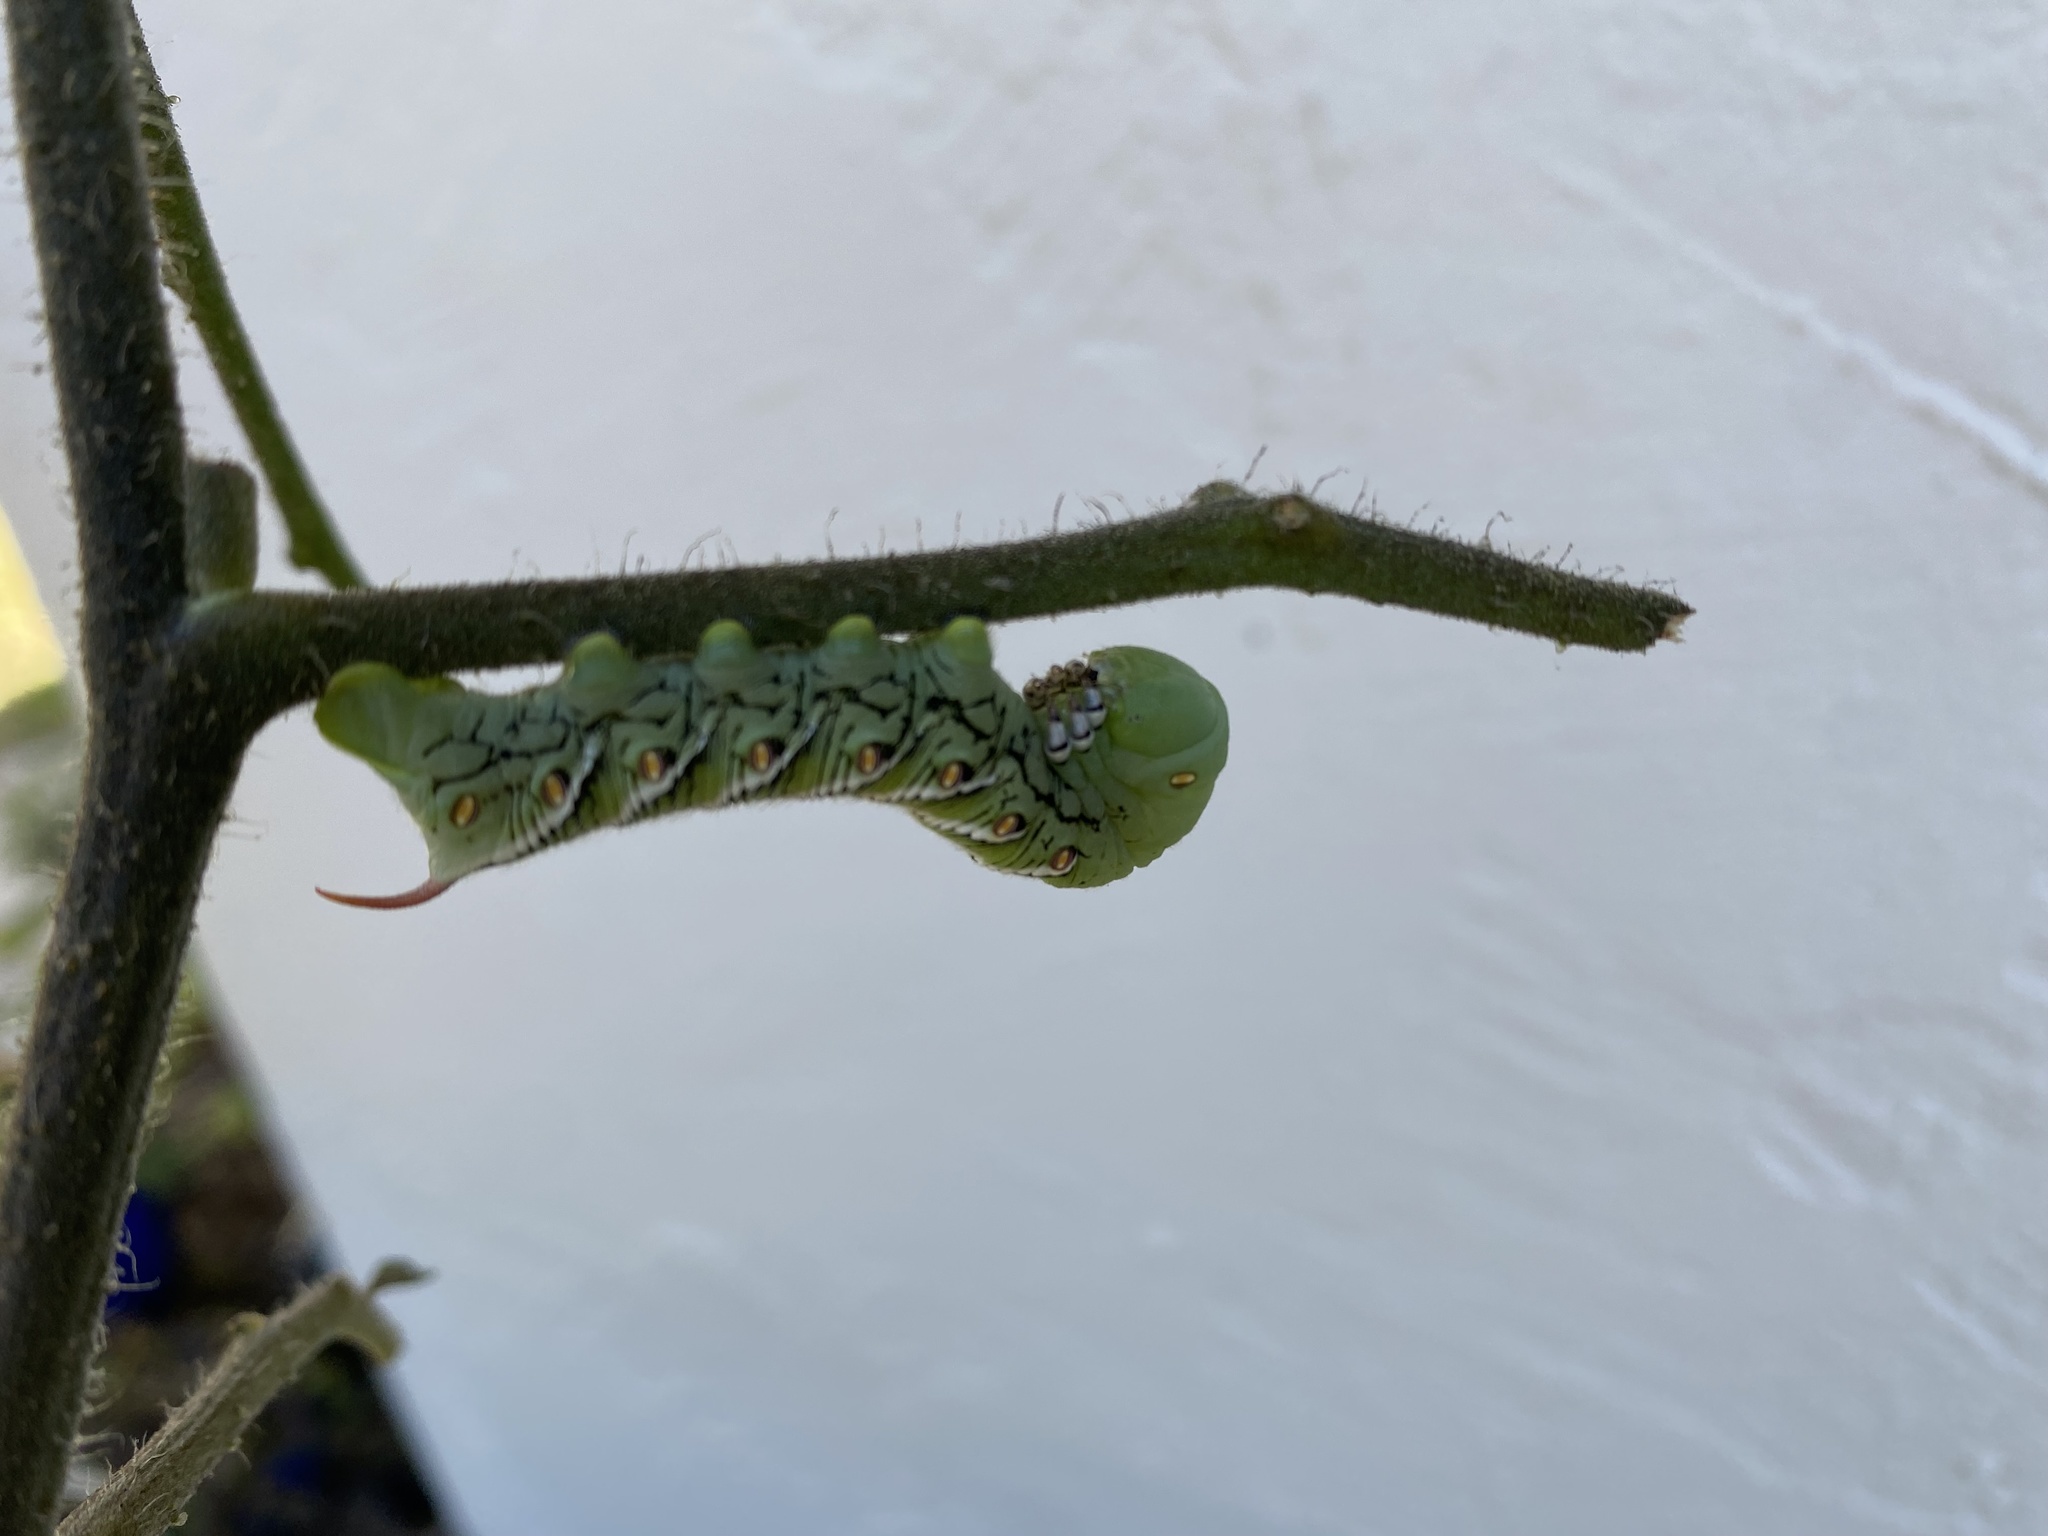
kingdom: Animalia
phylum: Arthropoda
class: Insecta
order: Lepidoptera
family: Sphingidae
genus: Manduca
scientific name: Manduca sexta
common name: Carolina sphinx
